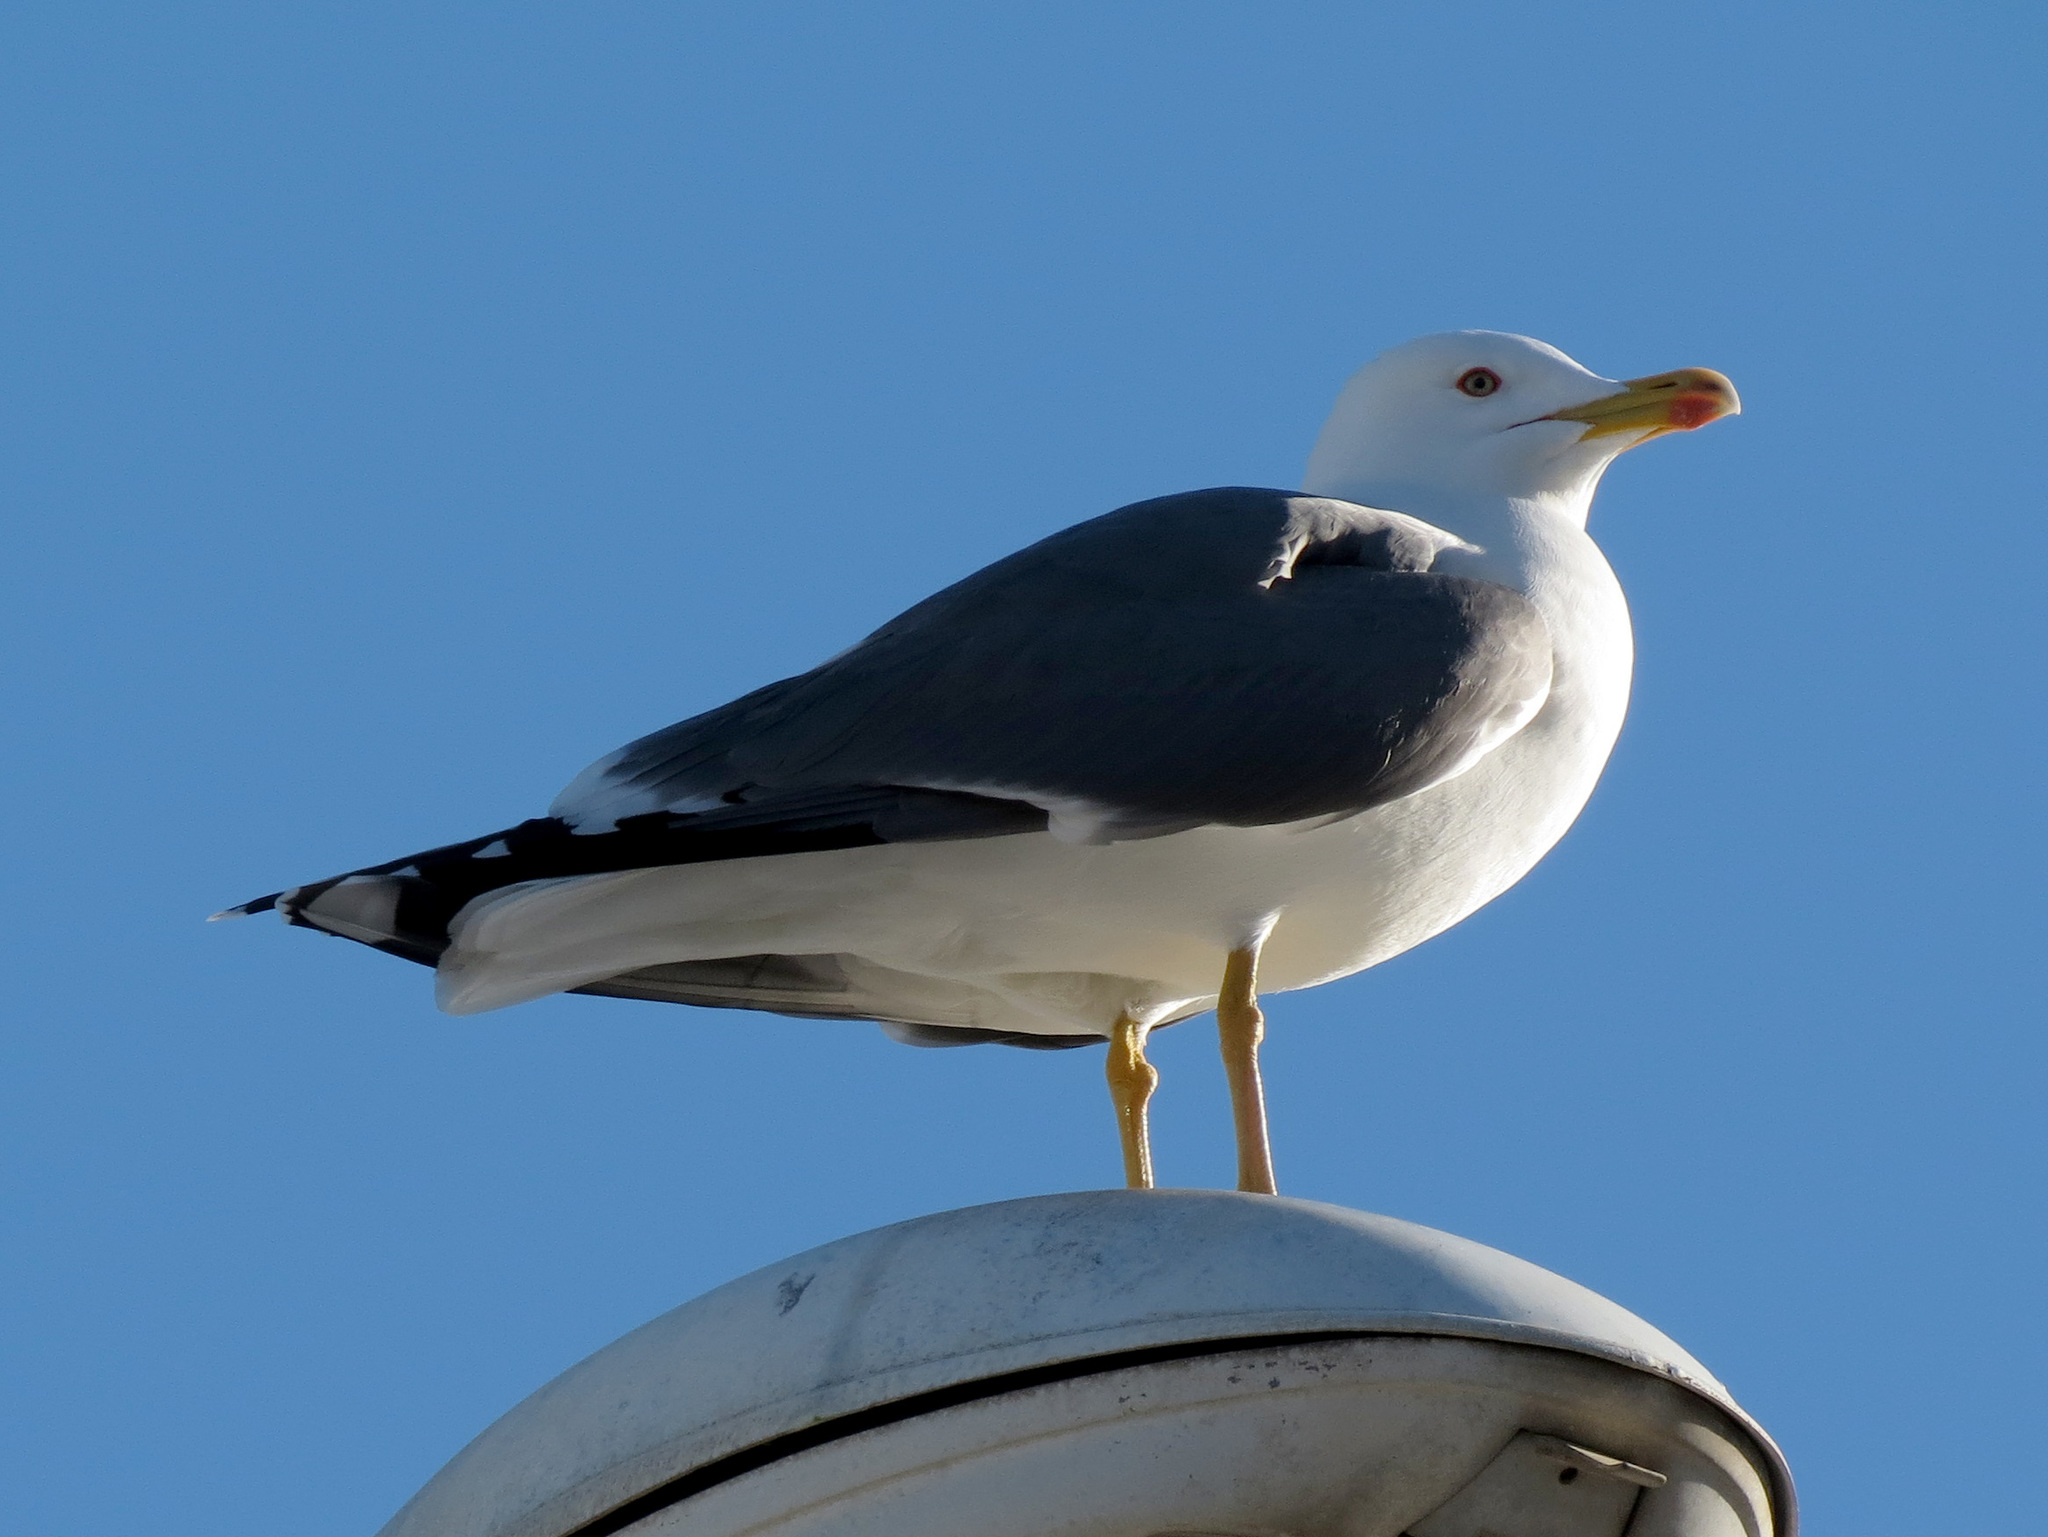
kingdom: Animalia
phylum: Chordata
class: Aves
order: Charadriiformes
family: Laridae
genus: Larus
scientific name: Larus fuscus
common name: Lesser black-backed gull
